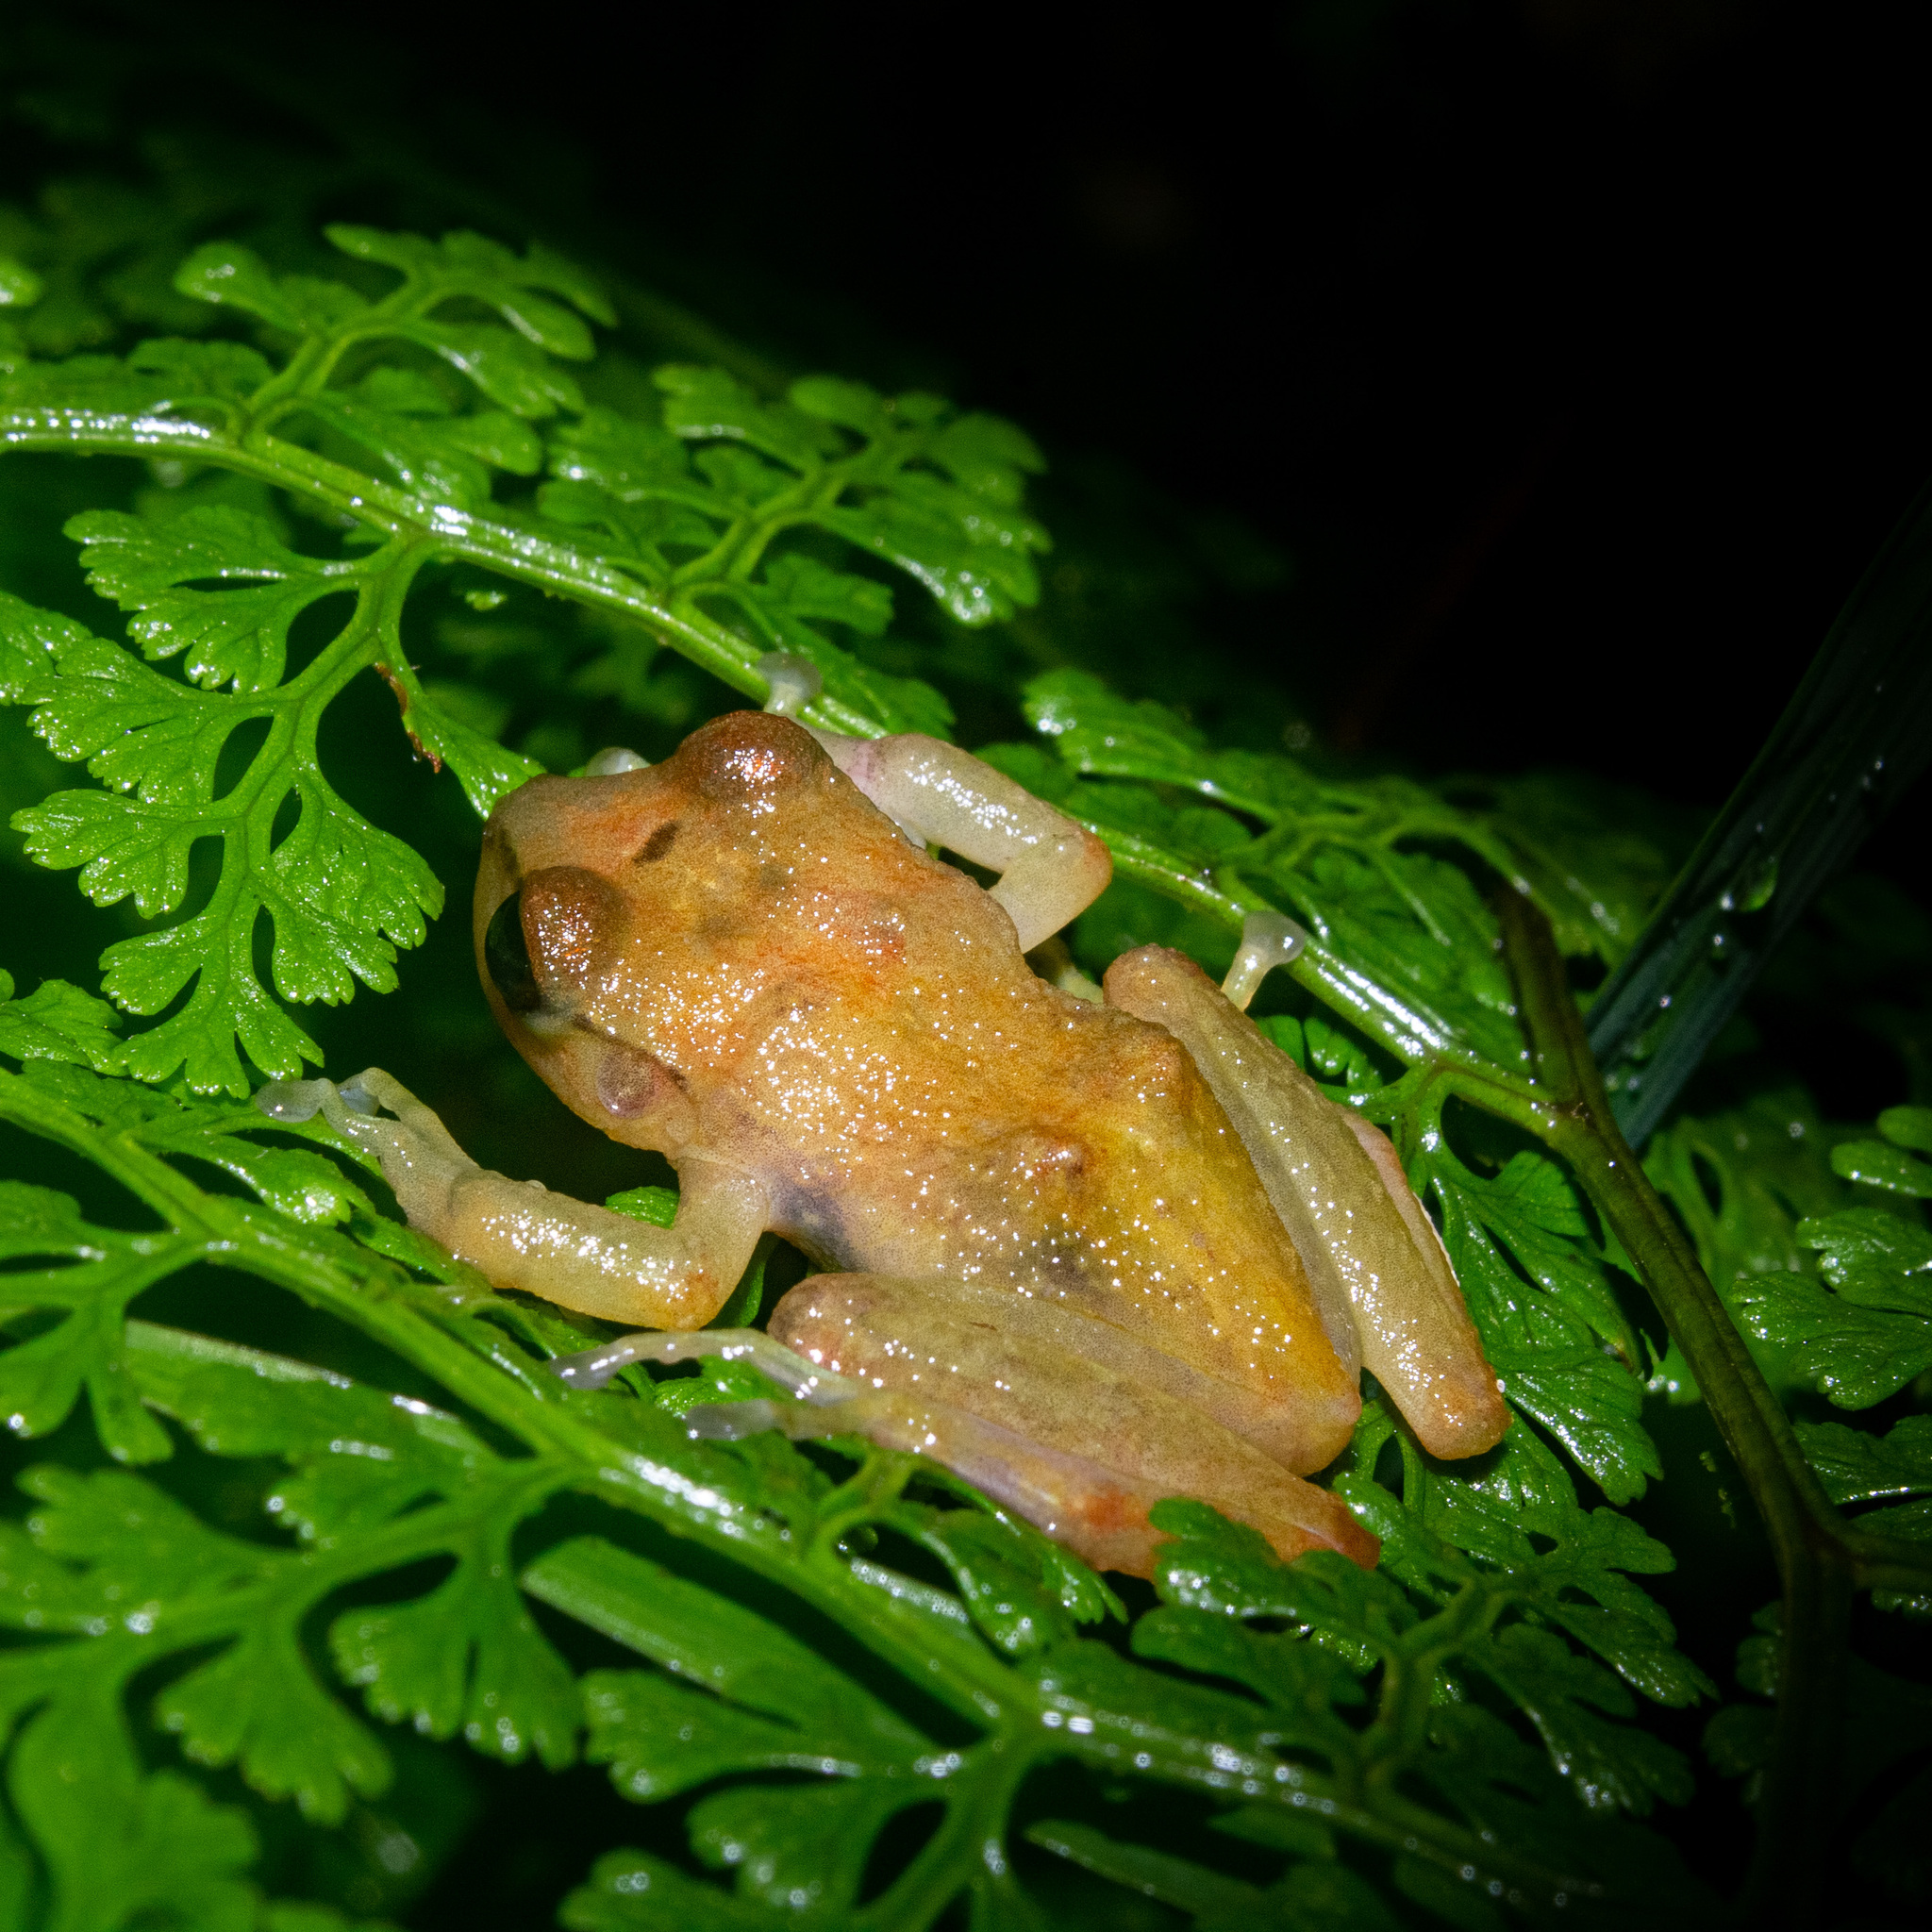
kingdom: Animalia
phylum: Chordata
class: Amphibia
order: Anura
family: Craugastoridae
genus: Tachiramantis
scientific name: Tachiramantis
